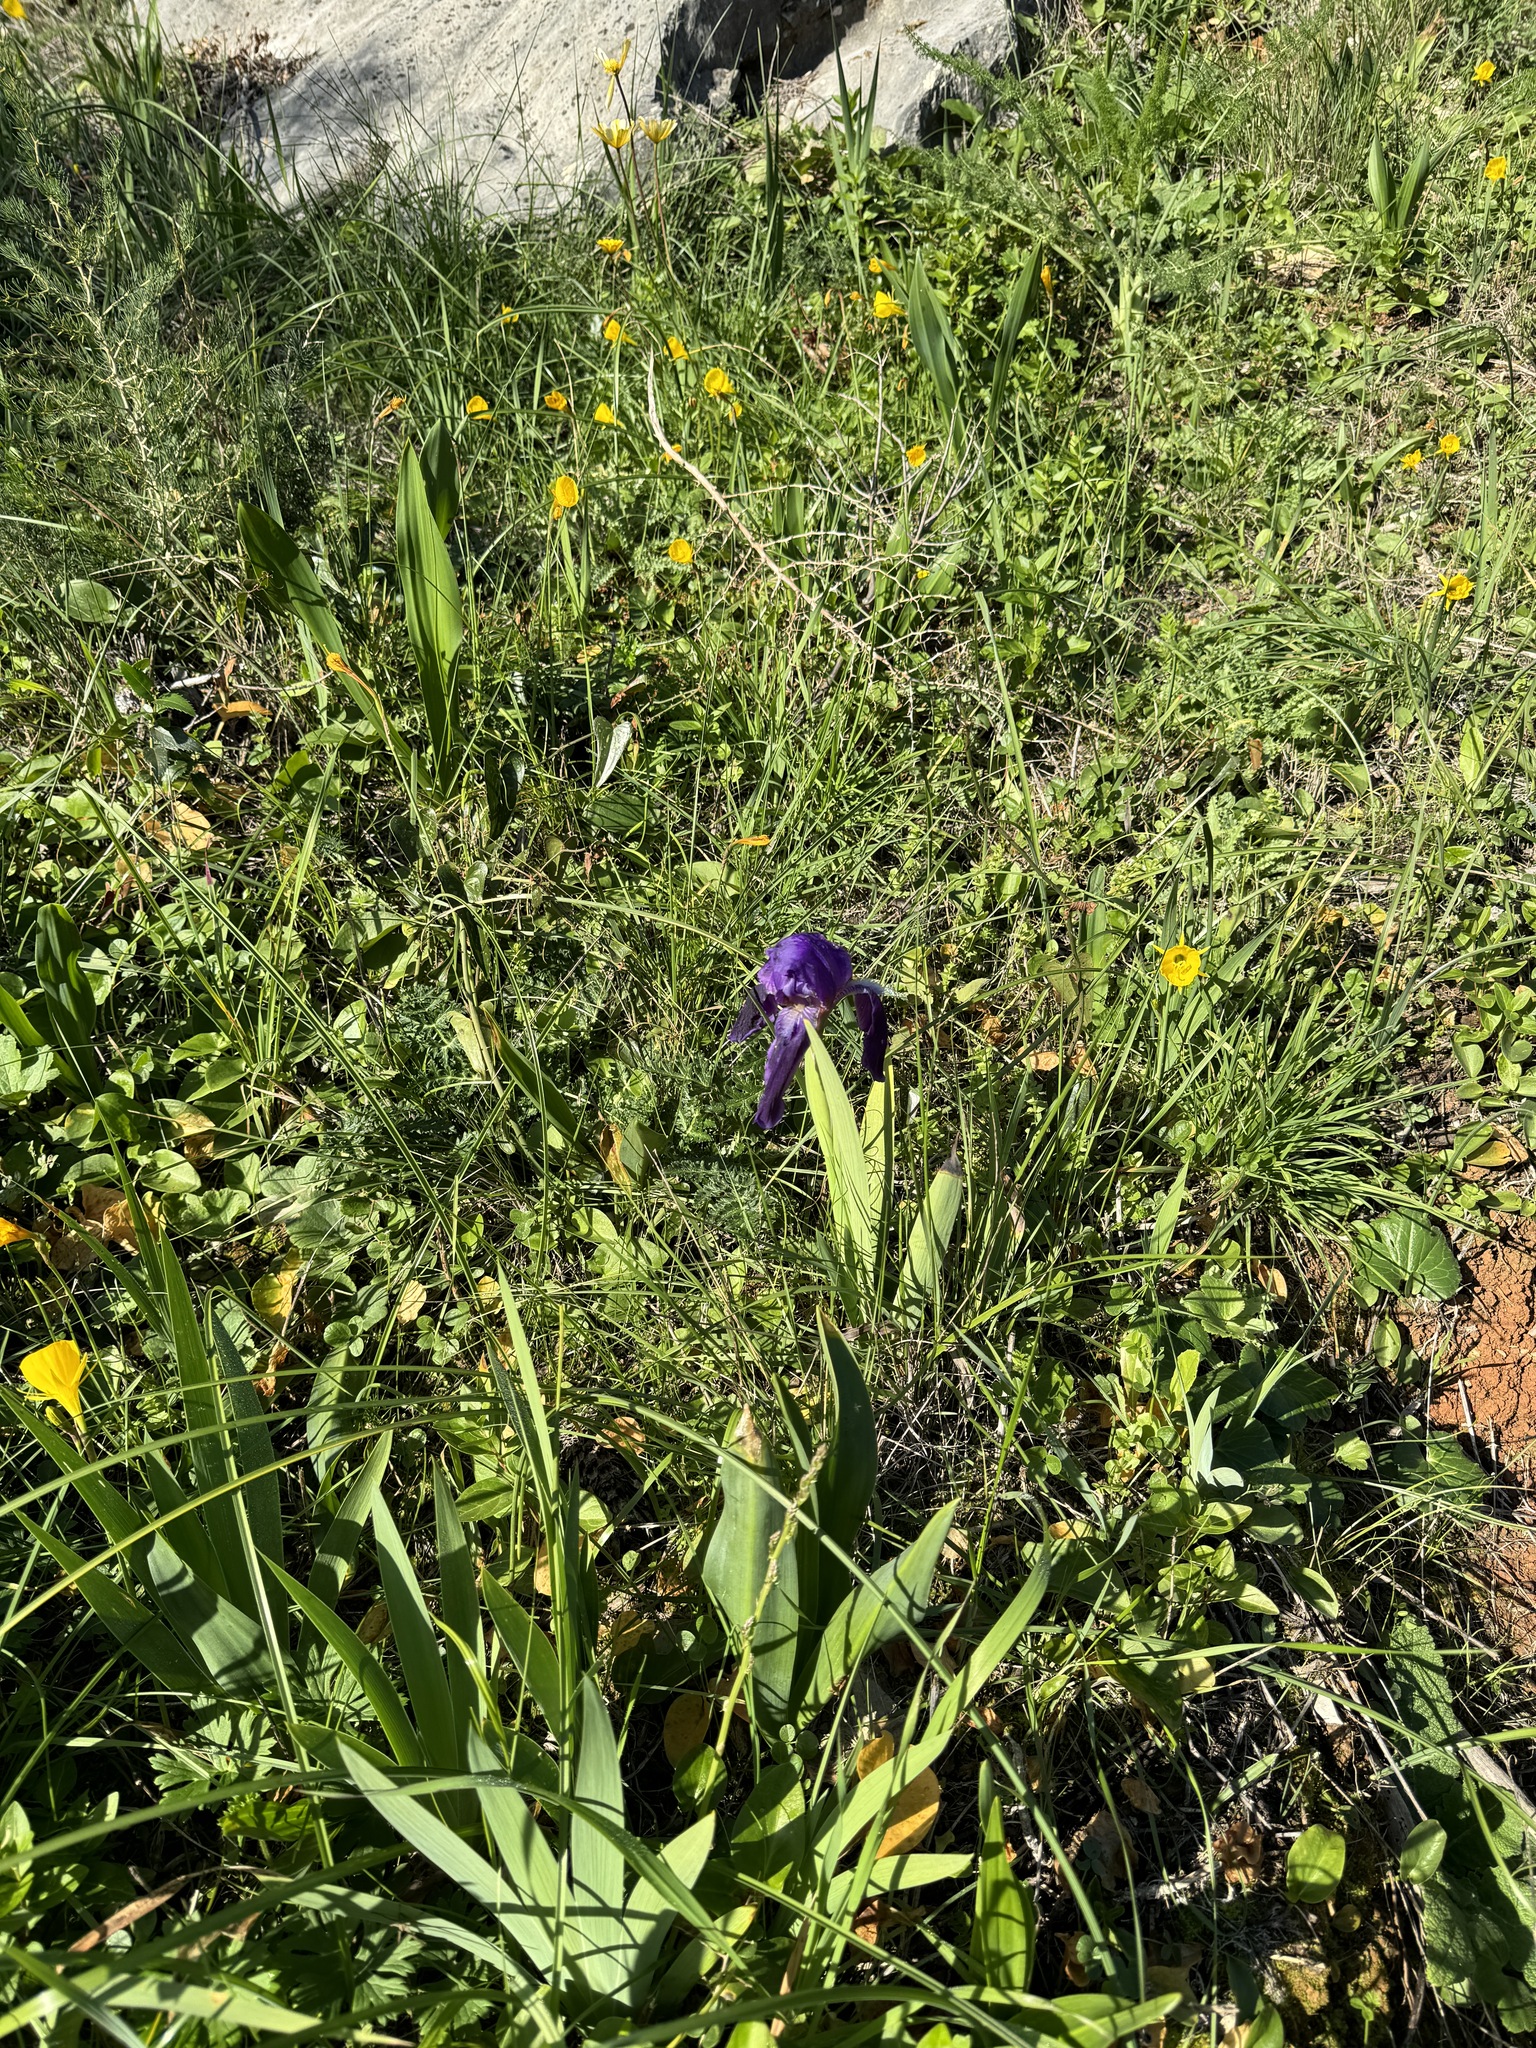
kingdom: Plantae
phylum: Tracheophyta
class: Liliopsida
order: Asparagales
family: Iridaceae
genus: Iris
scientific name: Iris lutescens
